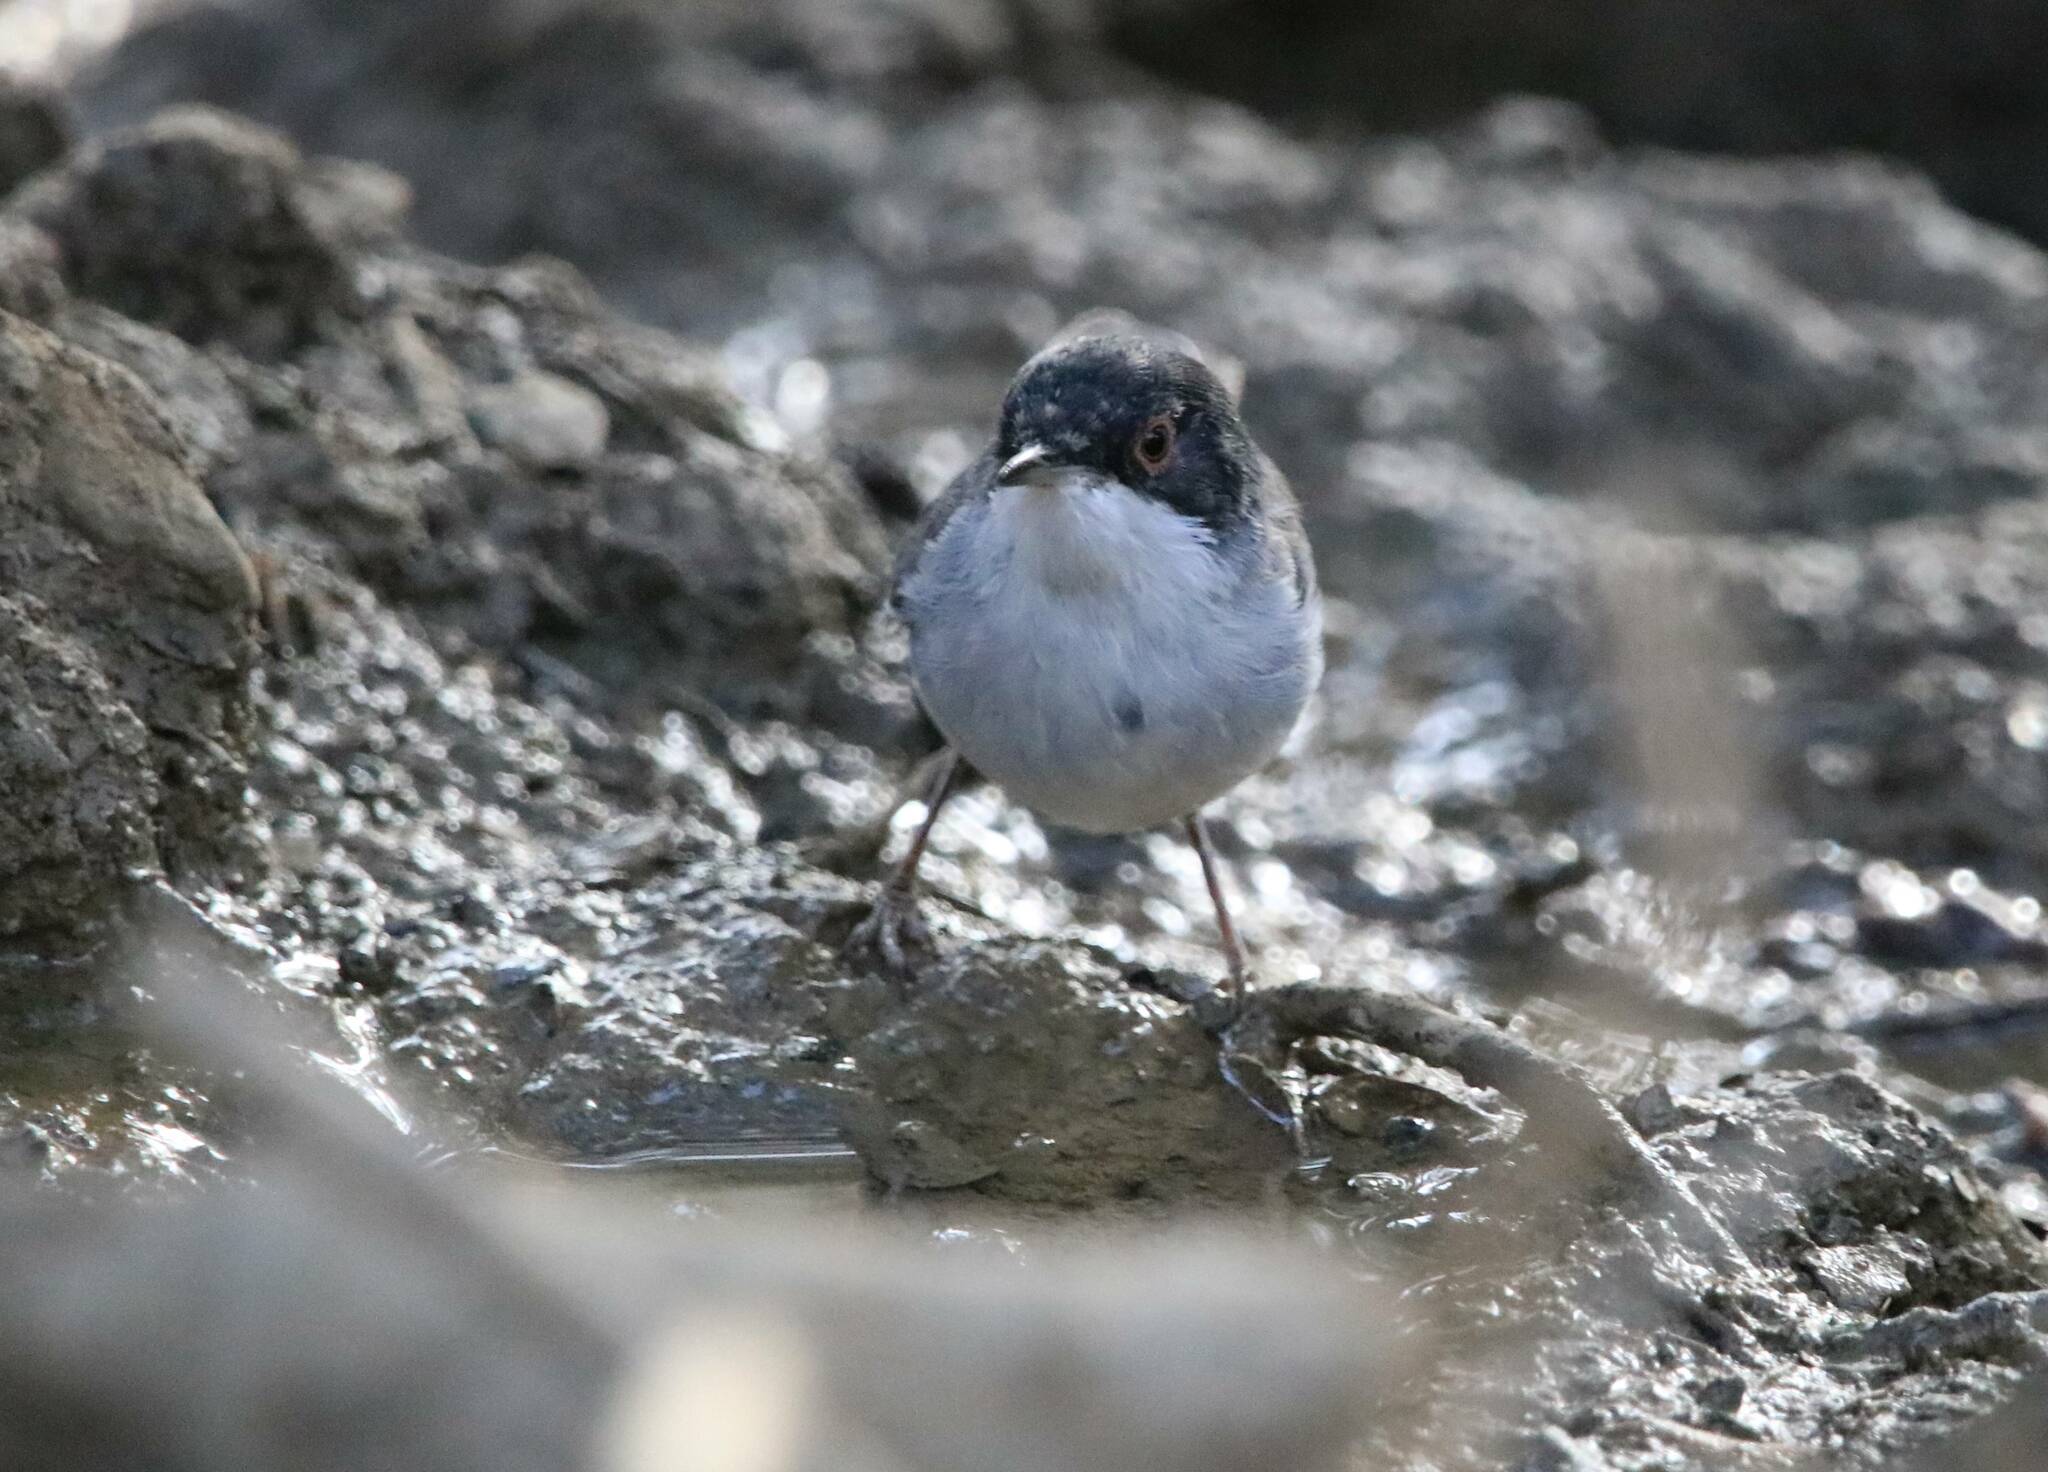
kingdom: Animalia
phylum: Chordata
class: Aves
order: Passeriformes
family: Sylviidae
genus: Curruca
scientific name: Curruca melanocephala
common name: Sardinian warbler
